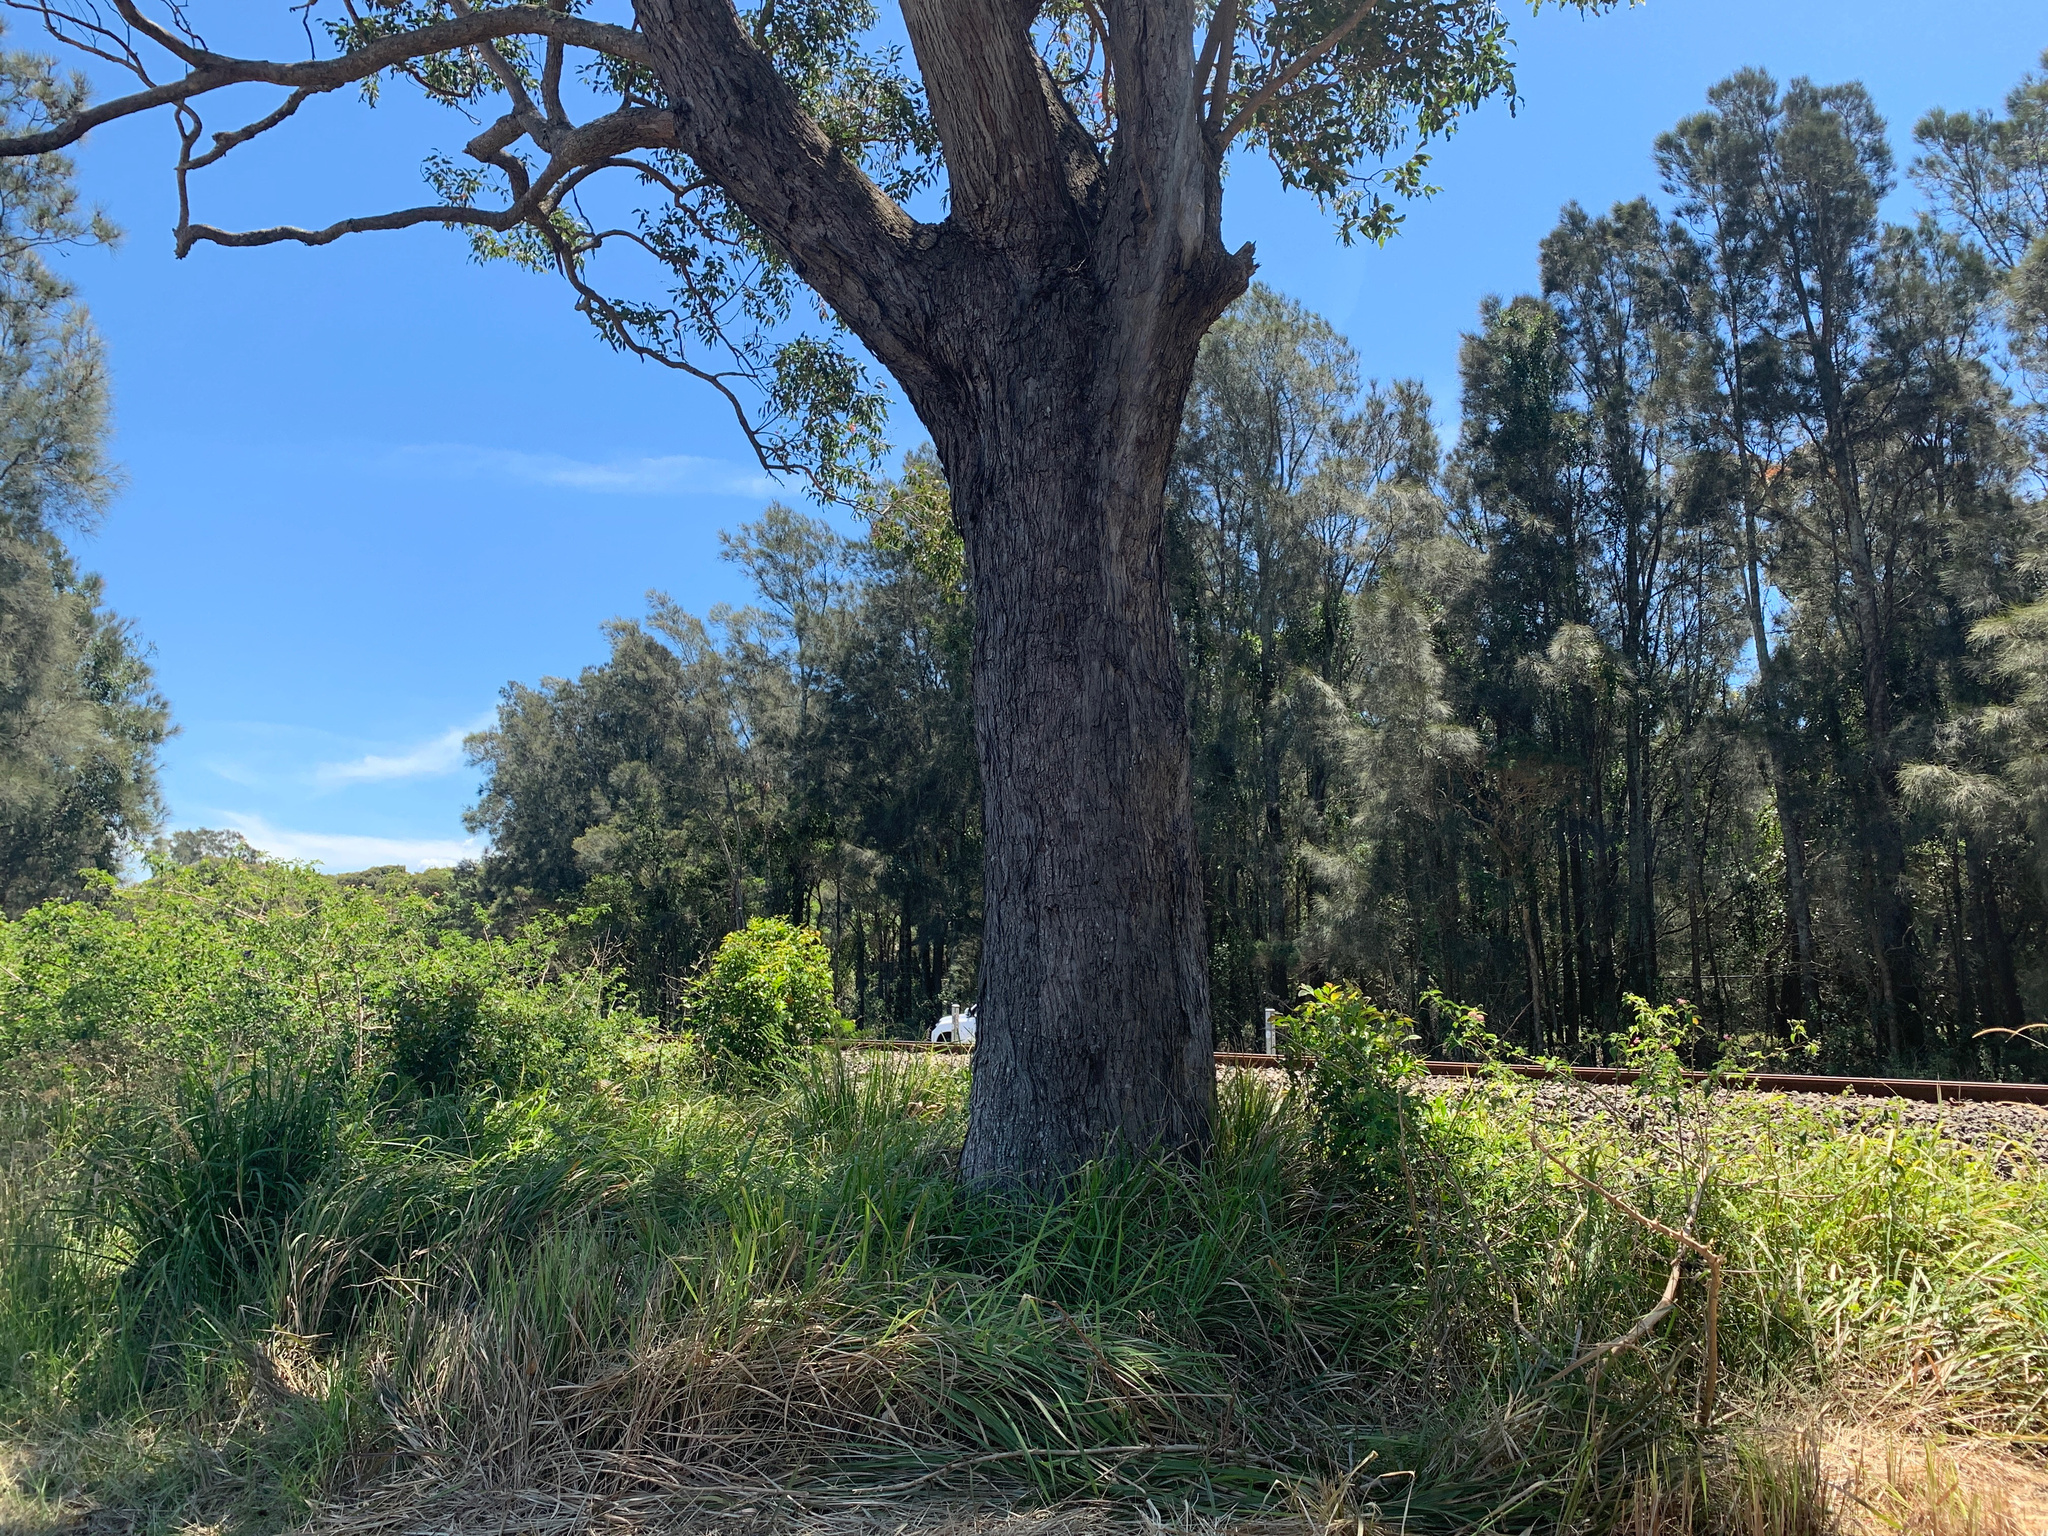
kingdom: Plantae
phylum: Tracheophyta
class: Magnoliopsida
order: Myrtales
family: Myrtaceae
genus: Eucalyptus
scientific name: Eucalyptus quadrangulata
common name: Coastal box
